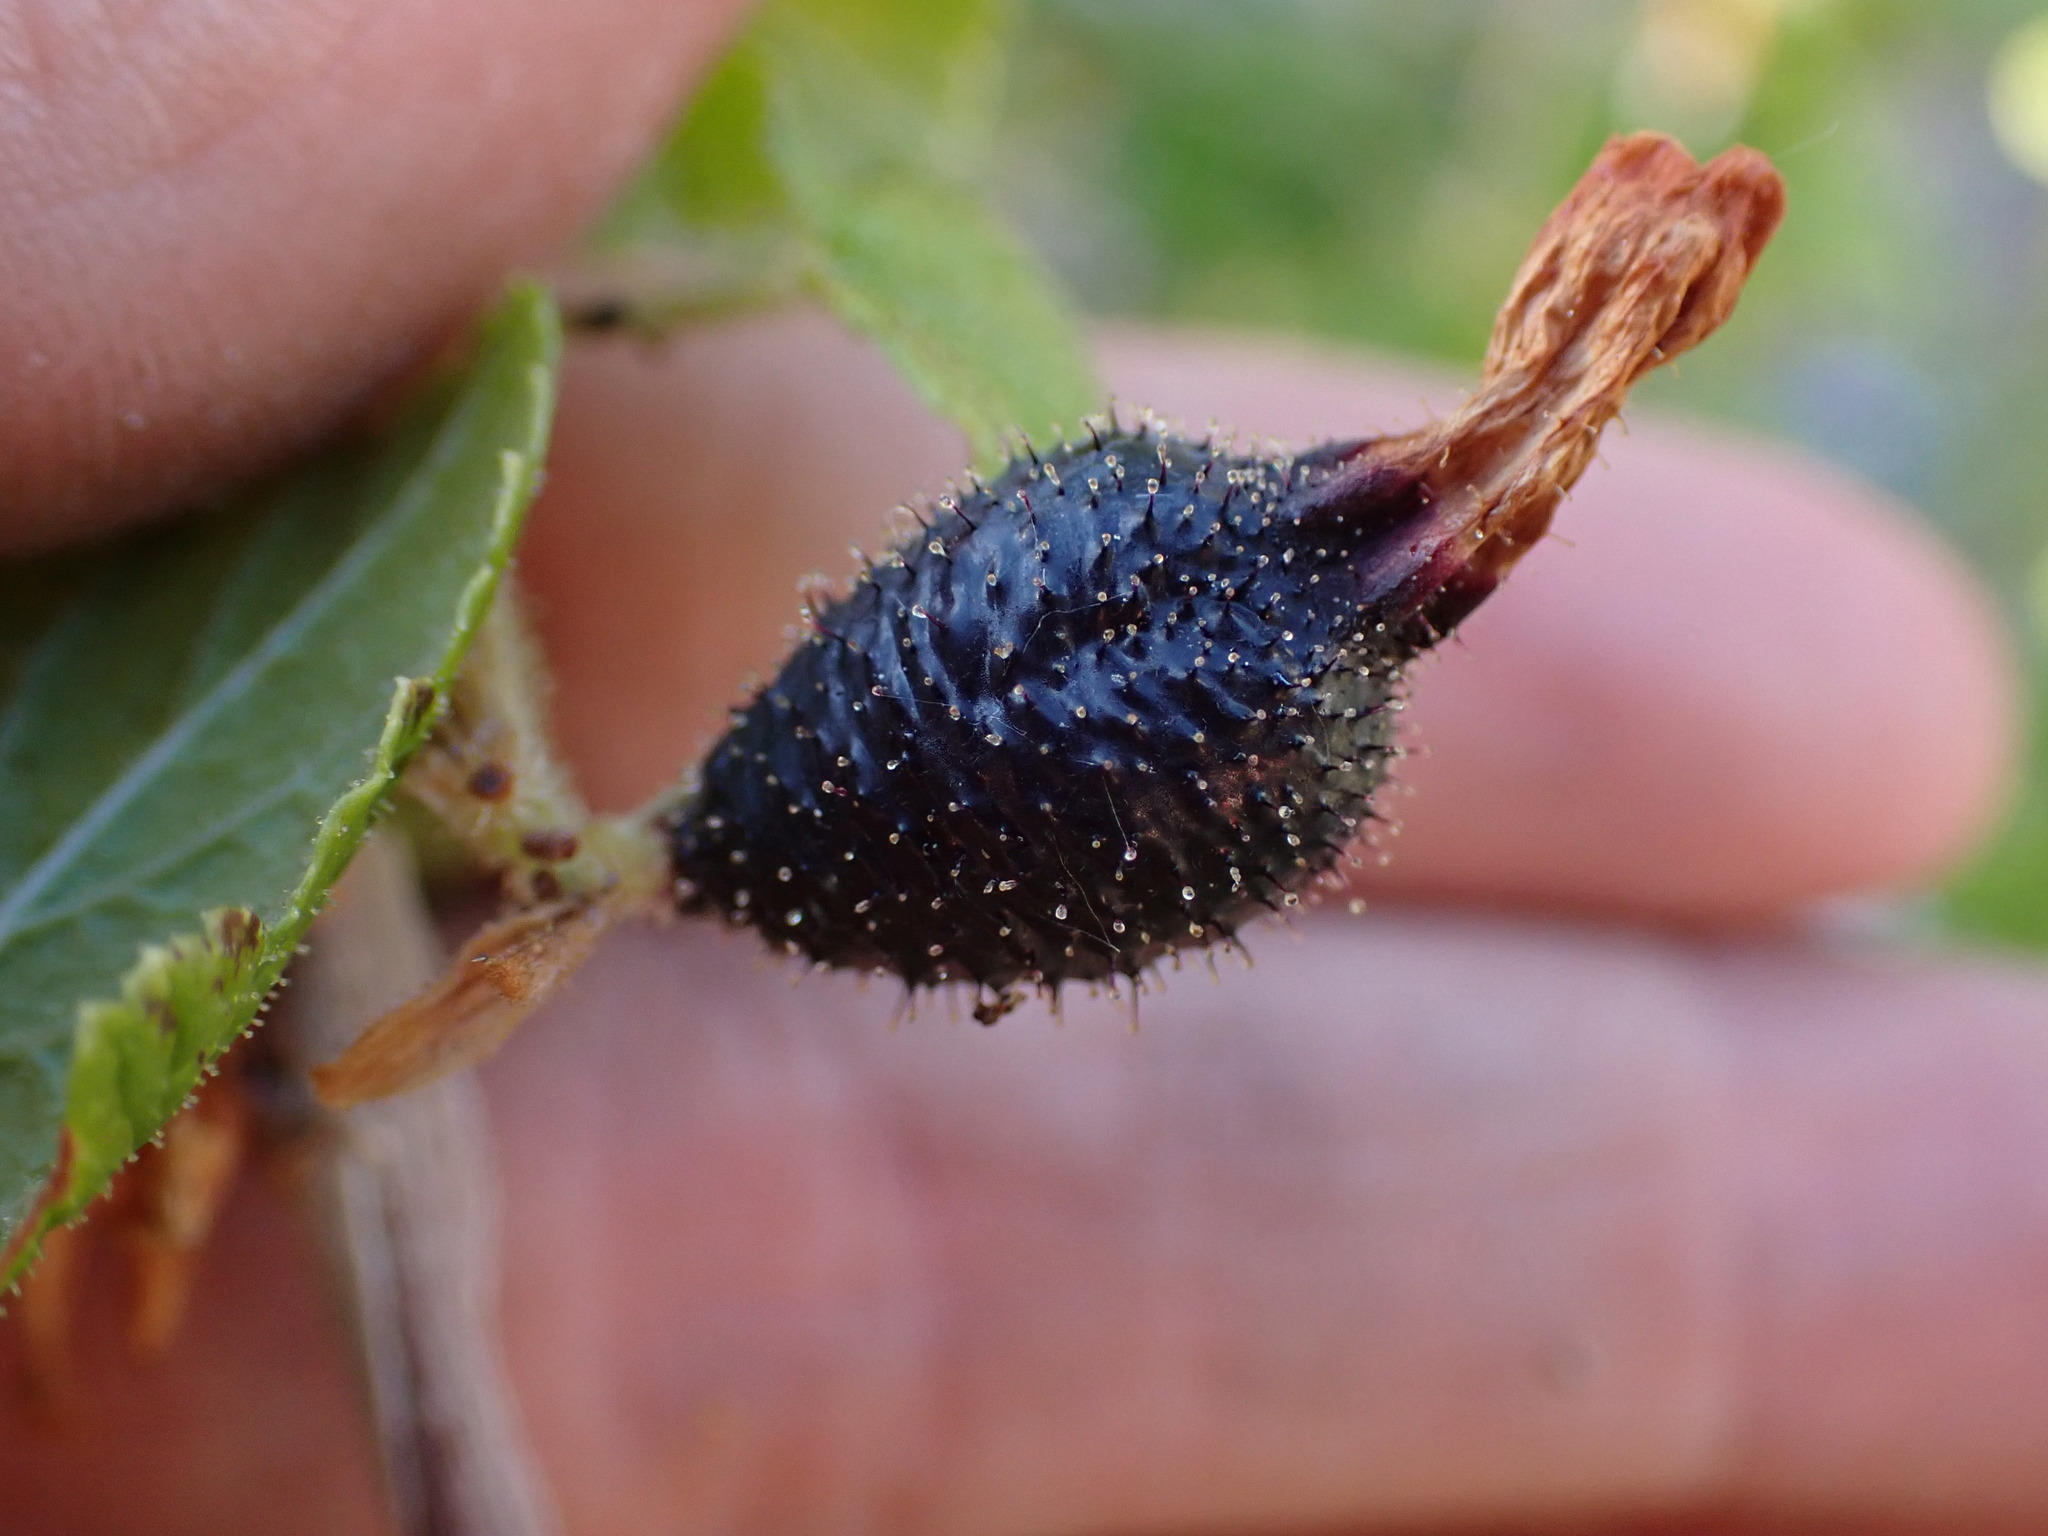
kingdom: Plantae
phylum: Tracheophyta
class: Magnoliopsida
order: Saxifragales
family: Grossulariaceae
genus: Ribes
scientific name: Ribes viscosissimum
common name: Sticky currant
